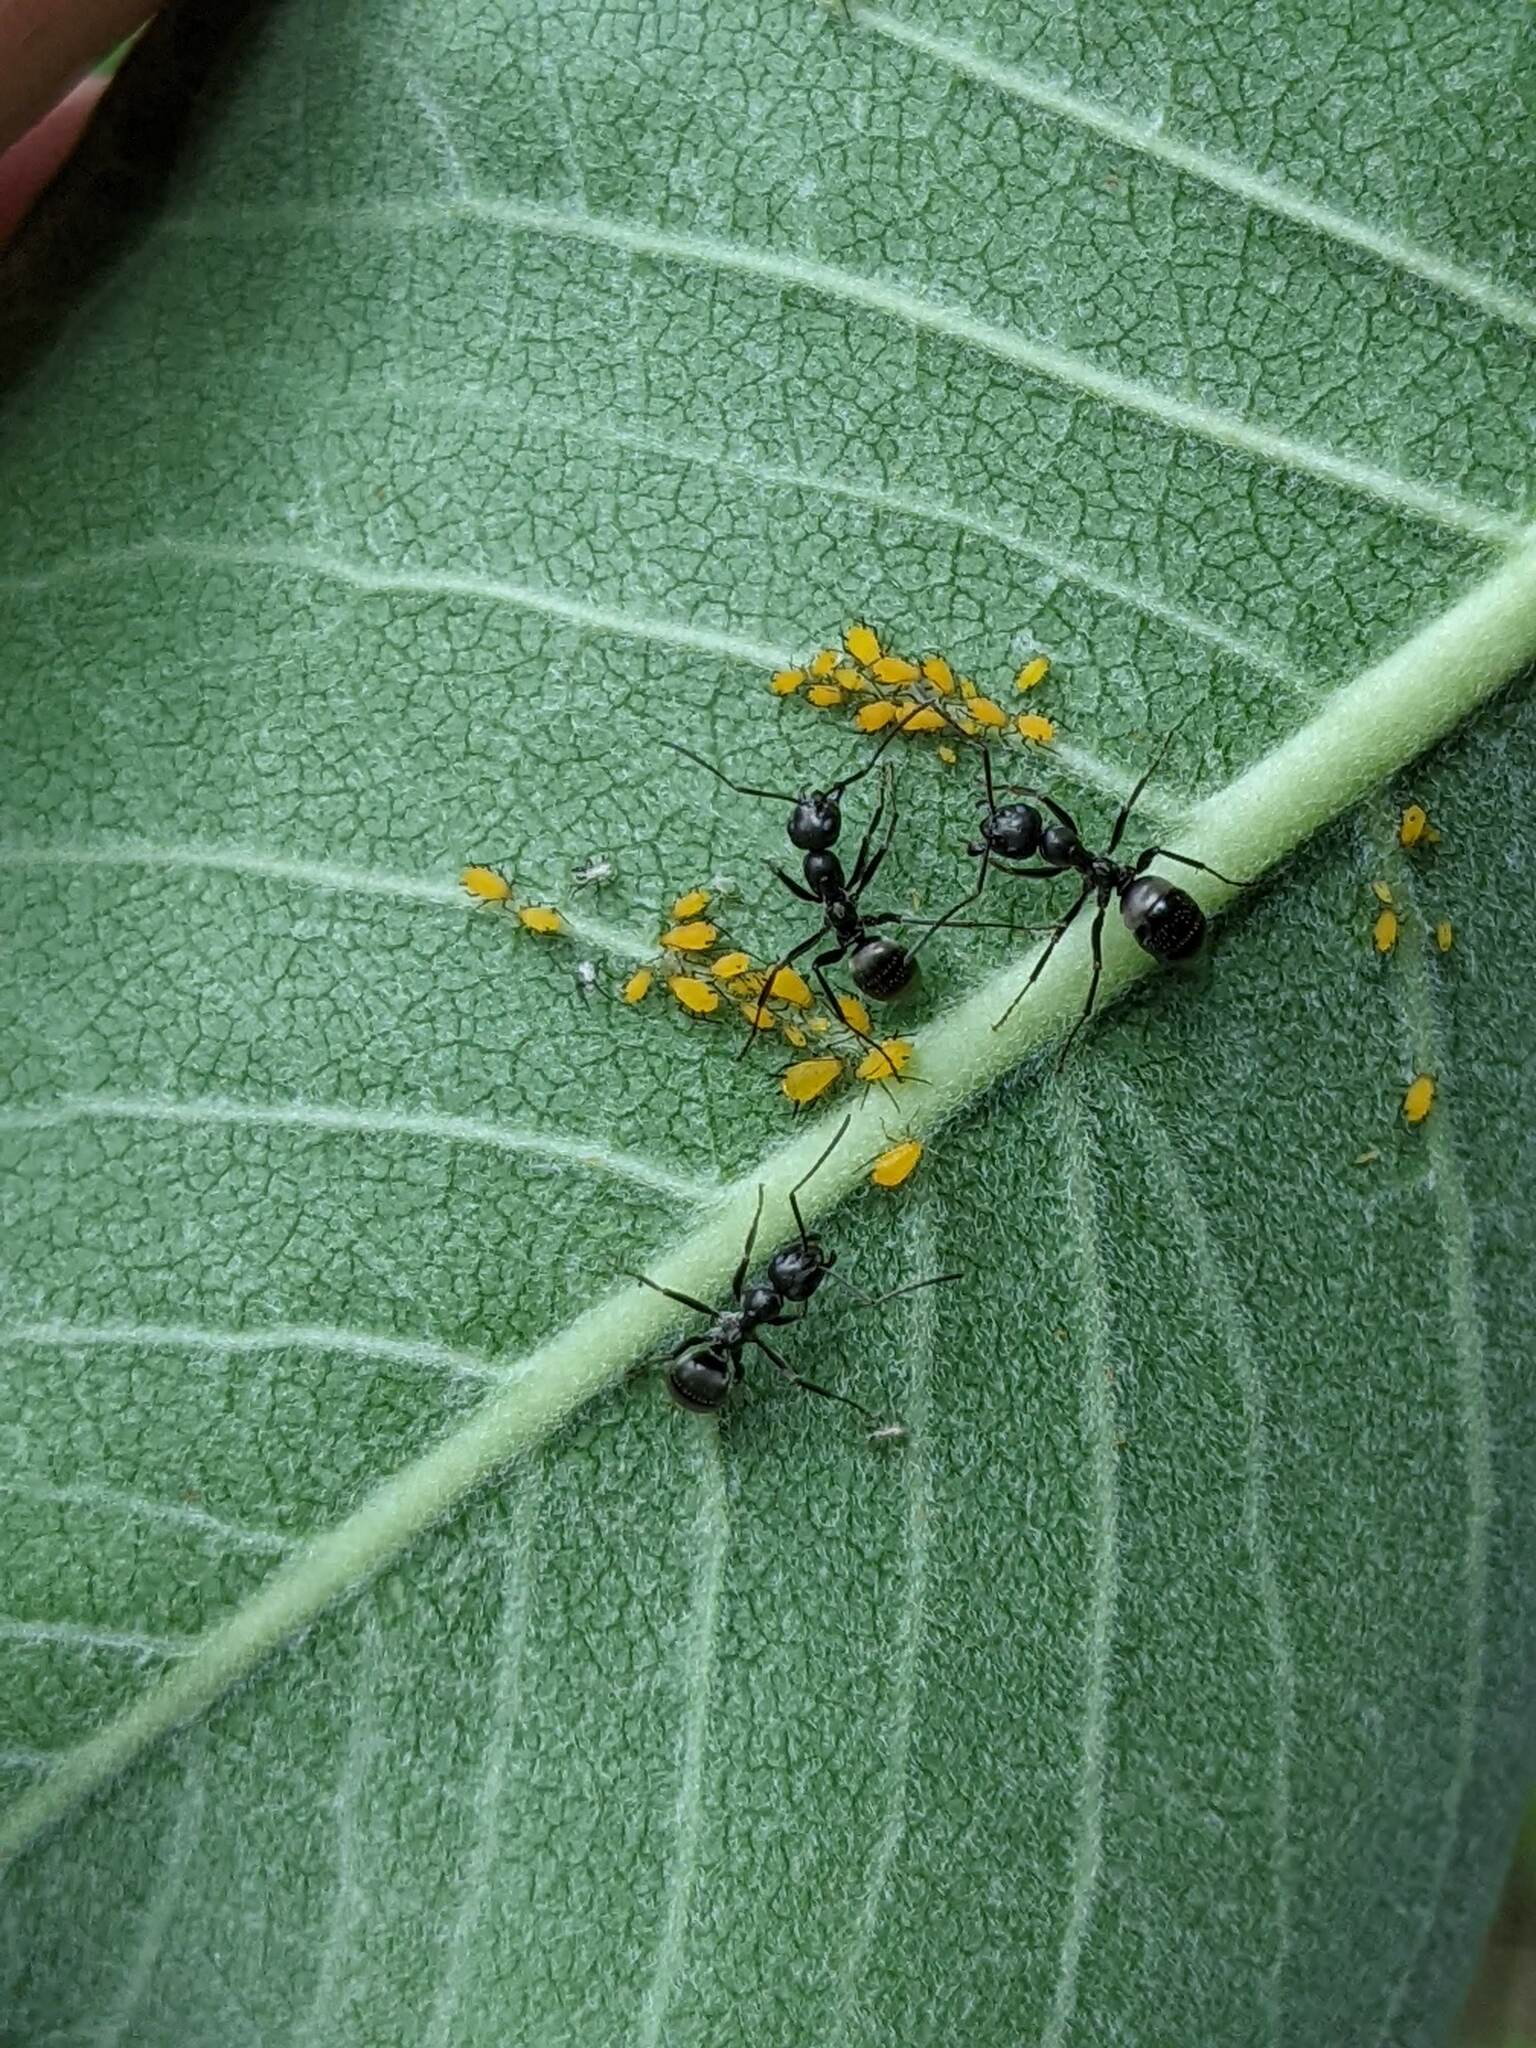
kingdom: Animalia
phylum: Arthropoda
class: Insecta
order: Hymenoptera
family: Formicidae
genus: Formica
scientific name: Formica
